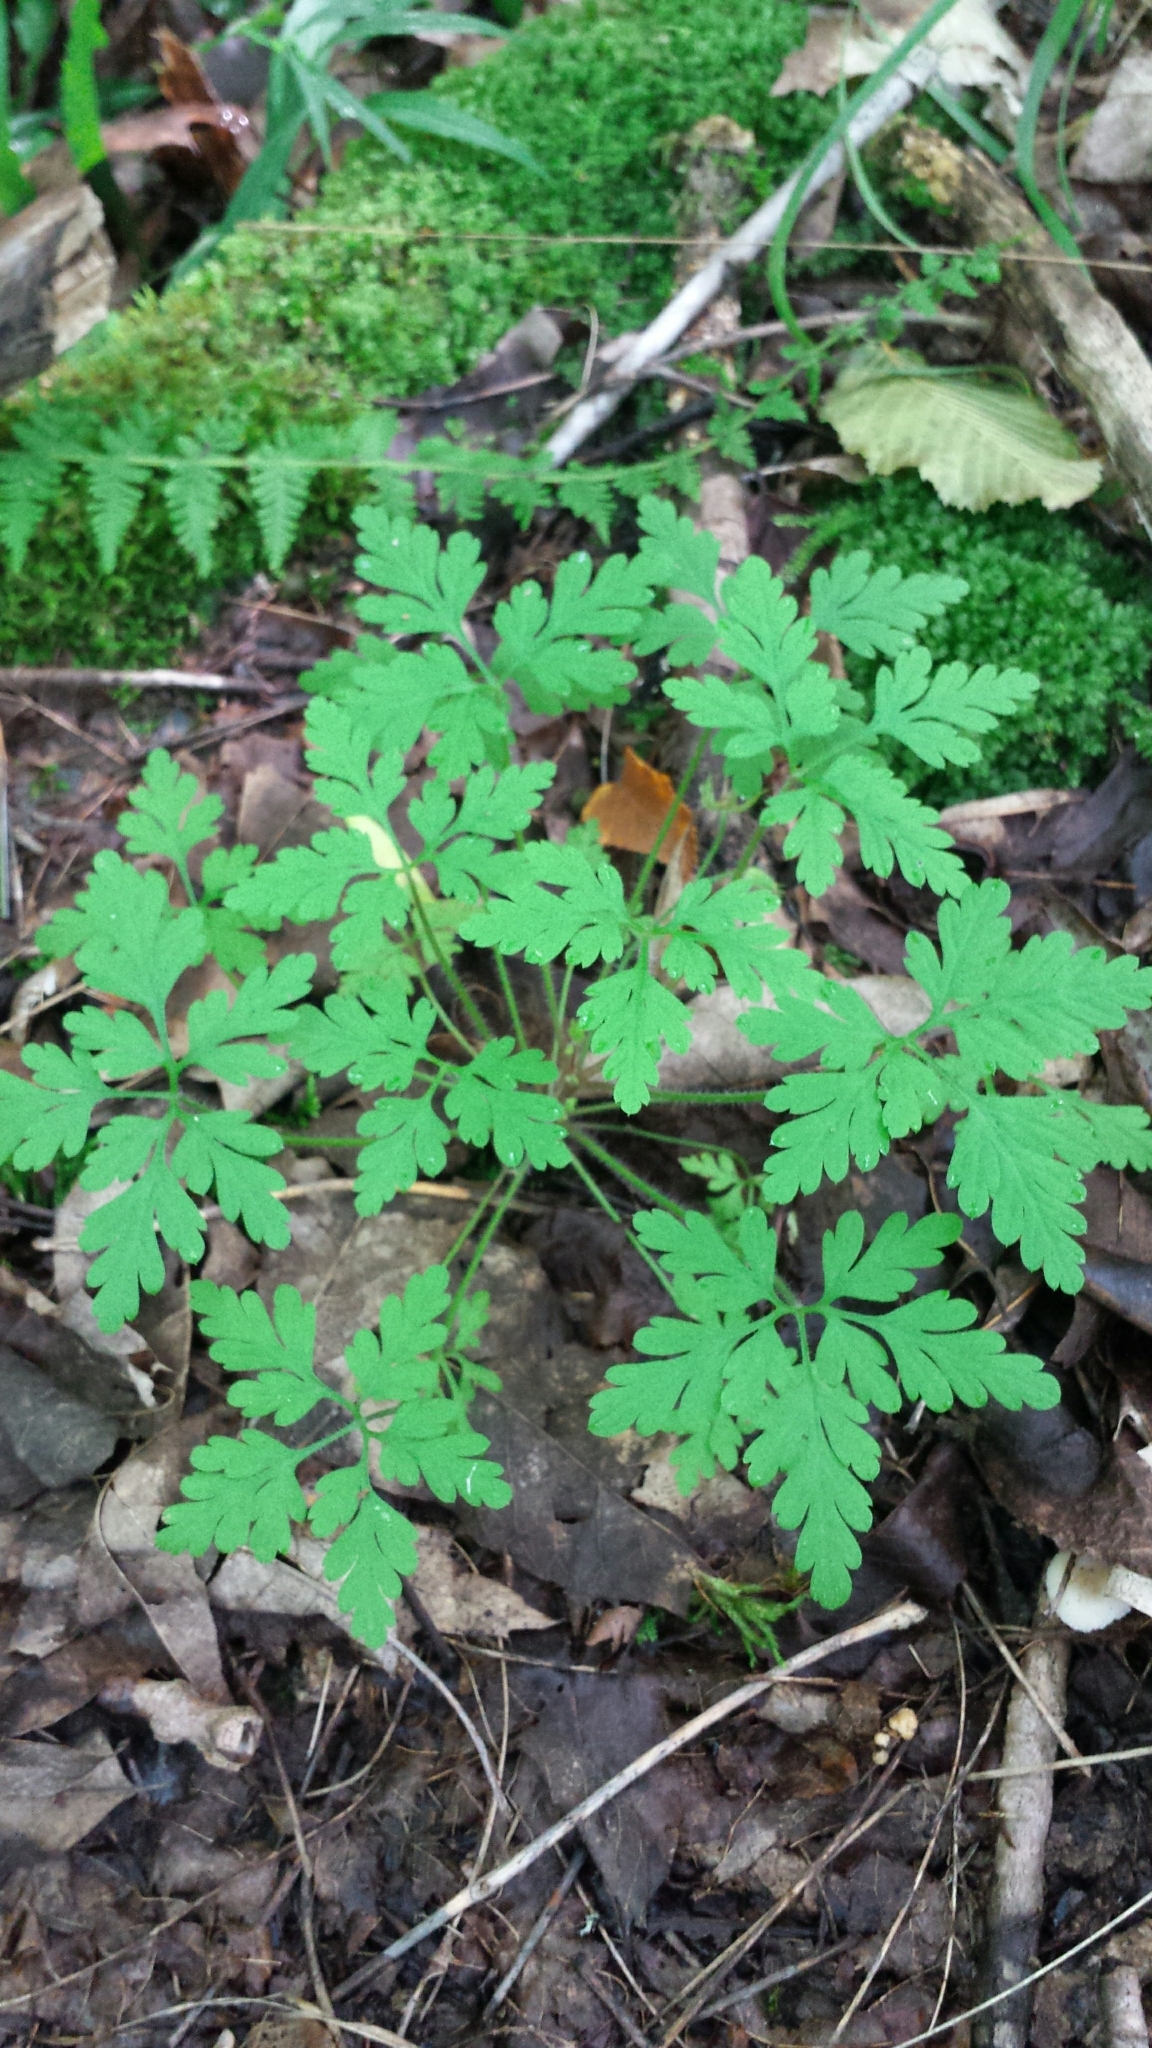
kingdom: Plantae
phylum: Tracheophyta
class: Magnoliopsida
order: Geraniales
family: Geraniaceae
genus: Geranium
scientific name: Geranium robertianum
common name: Herb-robert
